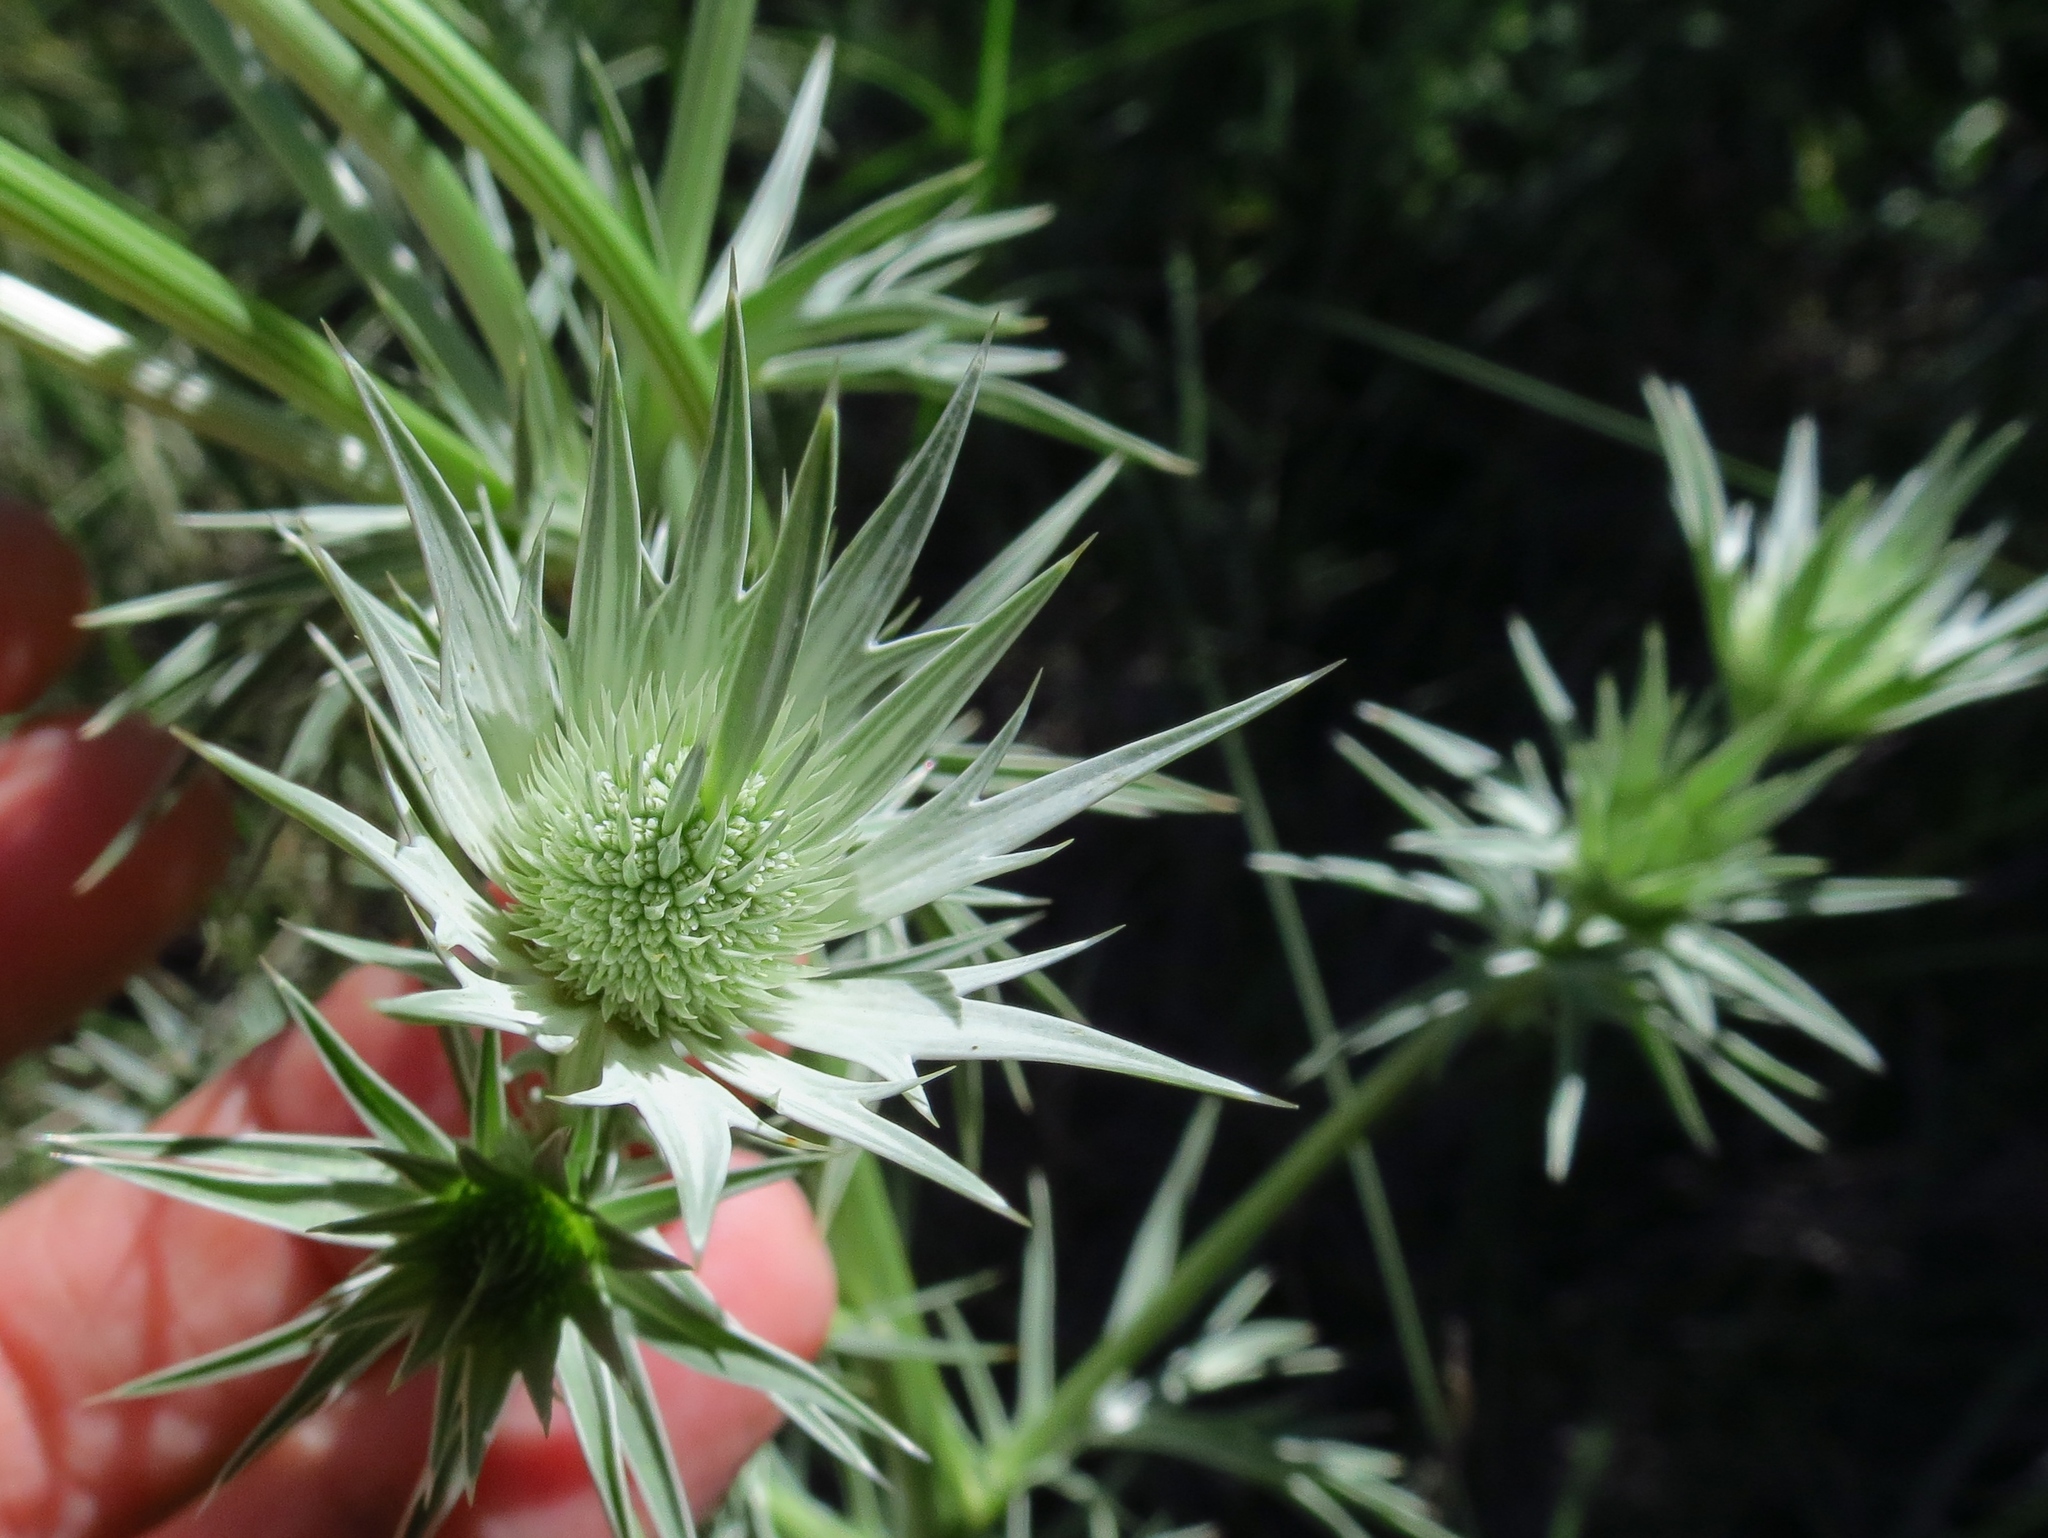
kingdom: Plantae
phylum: Tracheophyta
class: Magnoliopsida
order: Apiales
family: Apiaceae
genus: Eryngium
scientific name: Eryngium heterophyllum
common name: Mexican thistle
